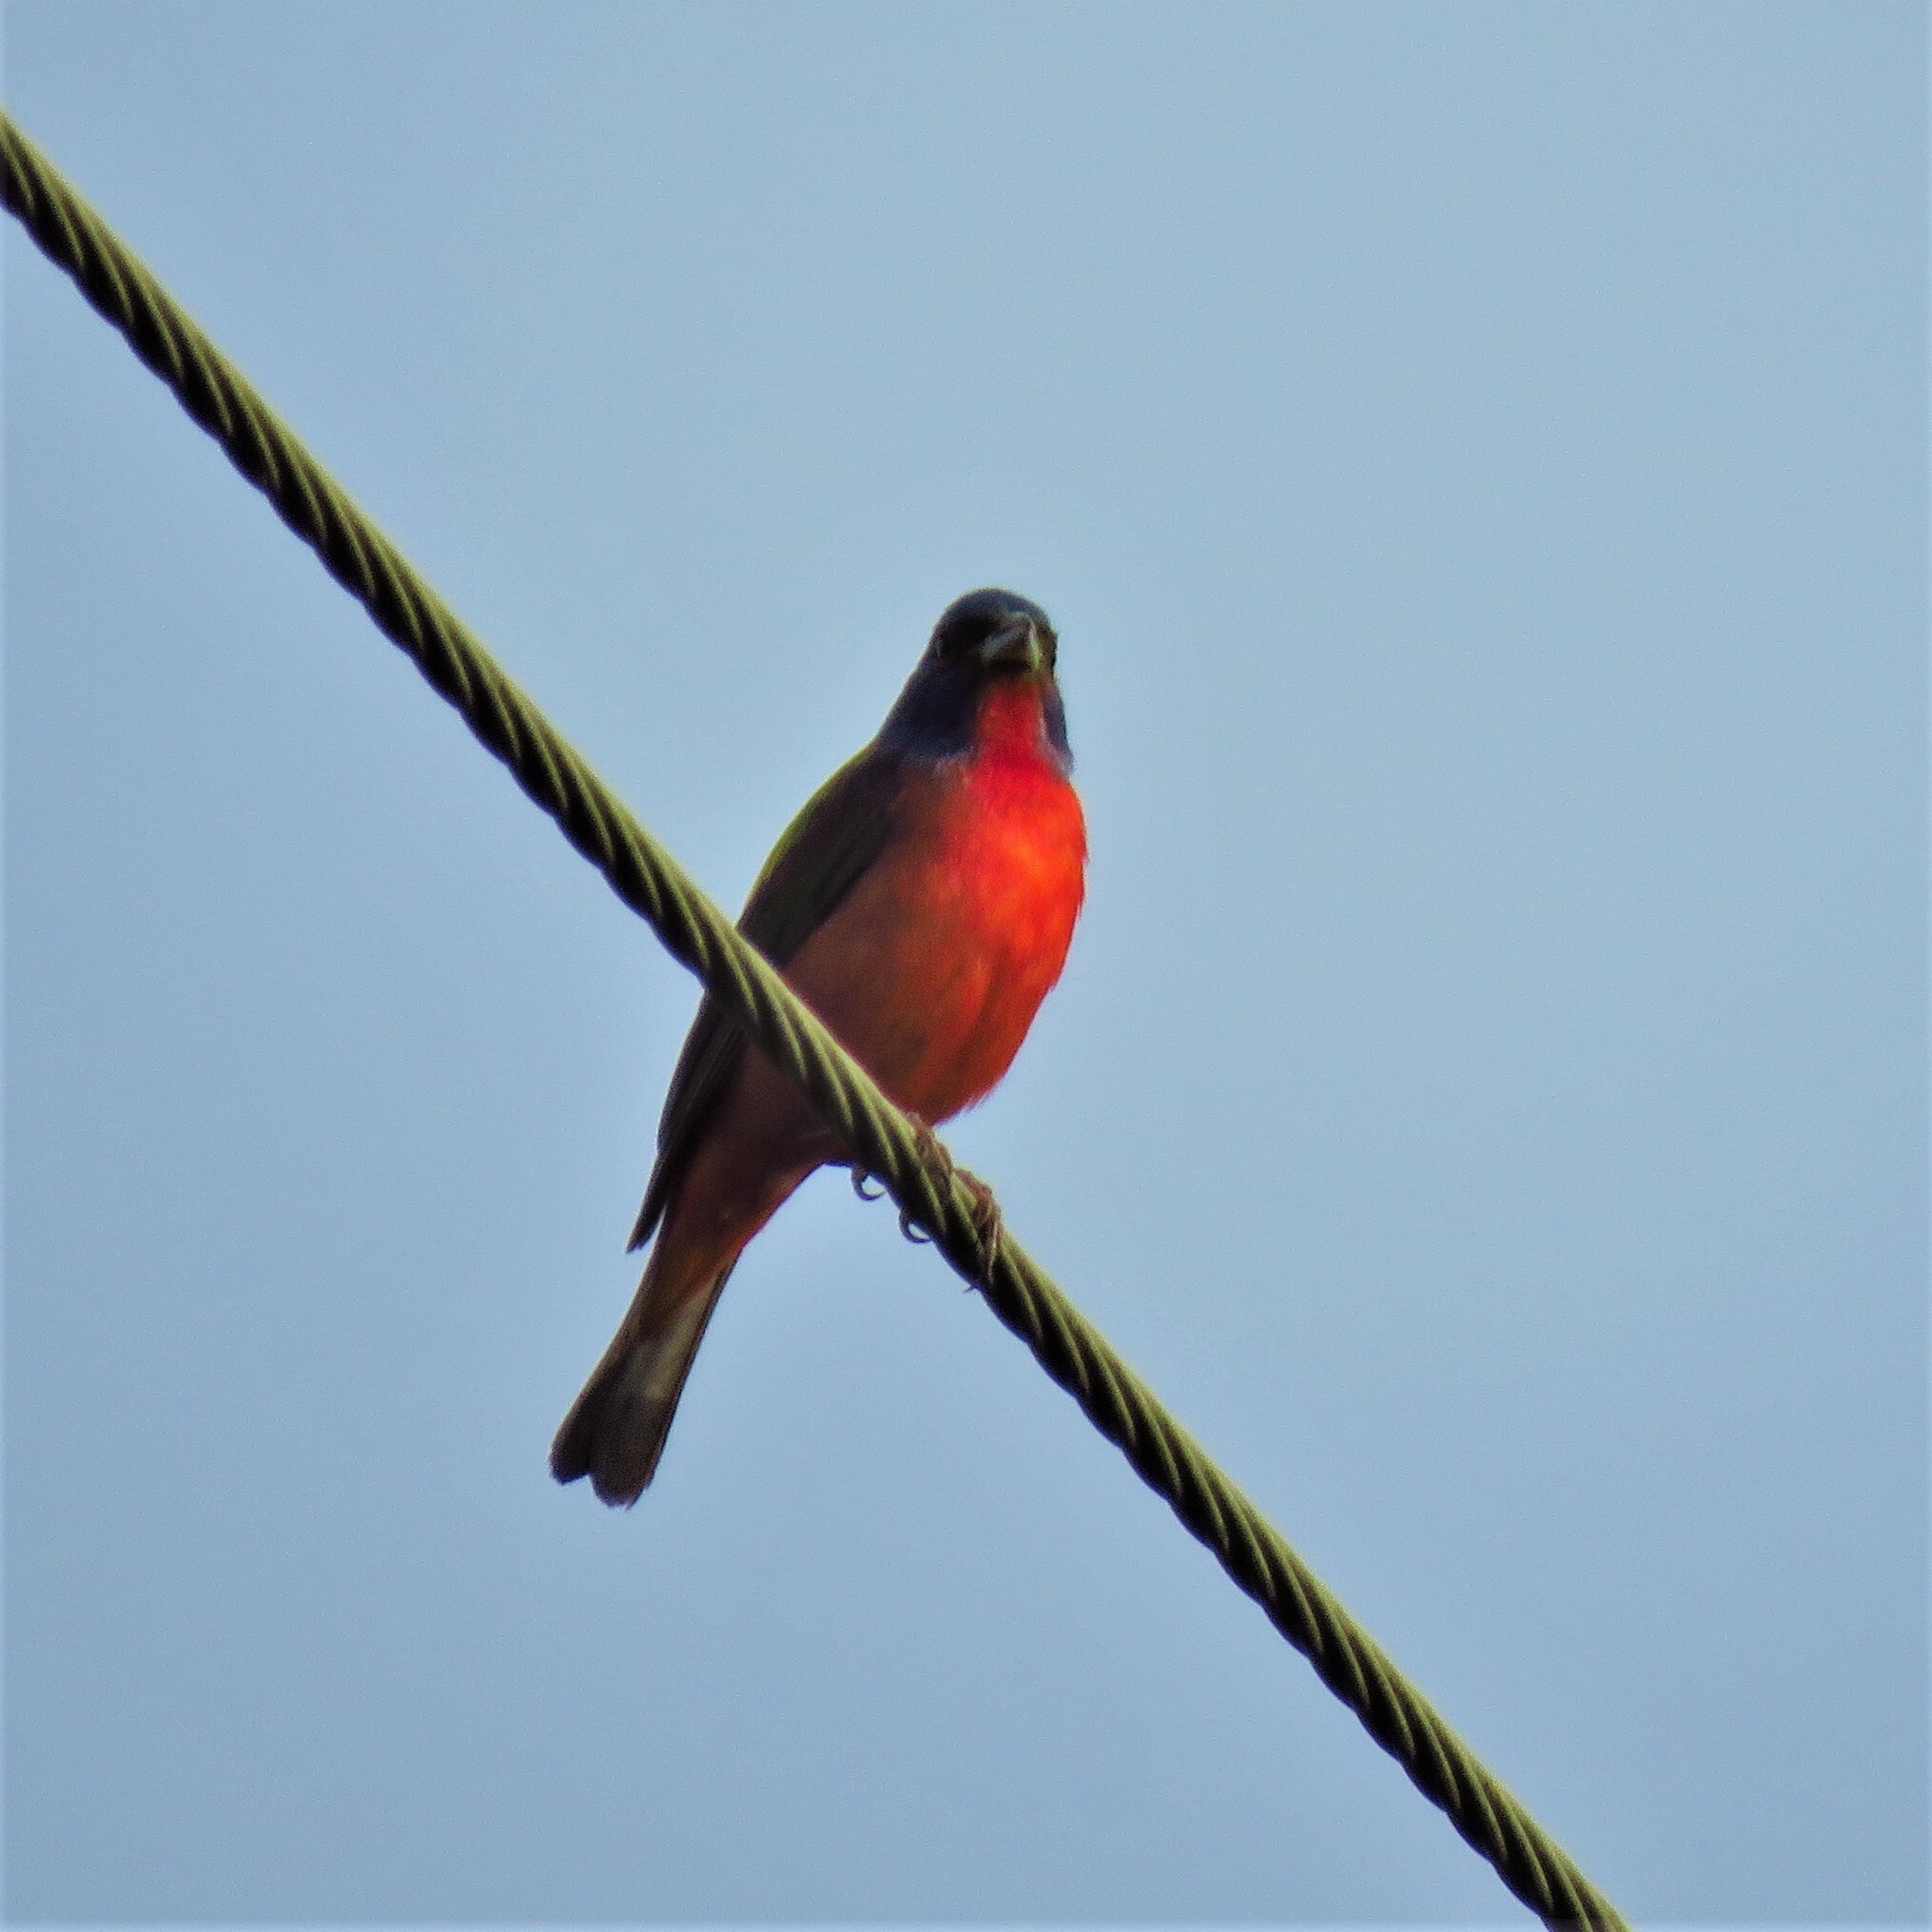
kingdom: Animalia
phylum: Chordata
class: Aves
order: Passeriformes
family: Cardinalidae
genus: Passerina
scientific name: Passerina ciris
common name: Painted bunting
